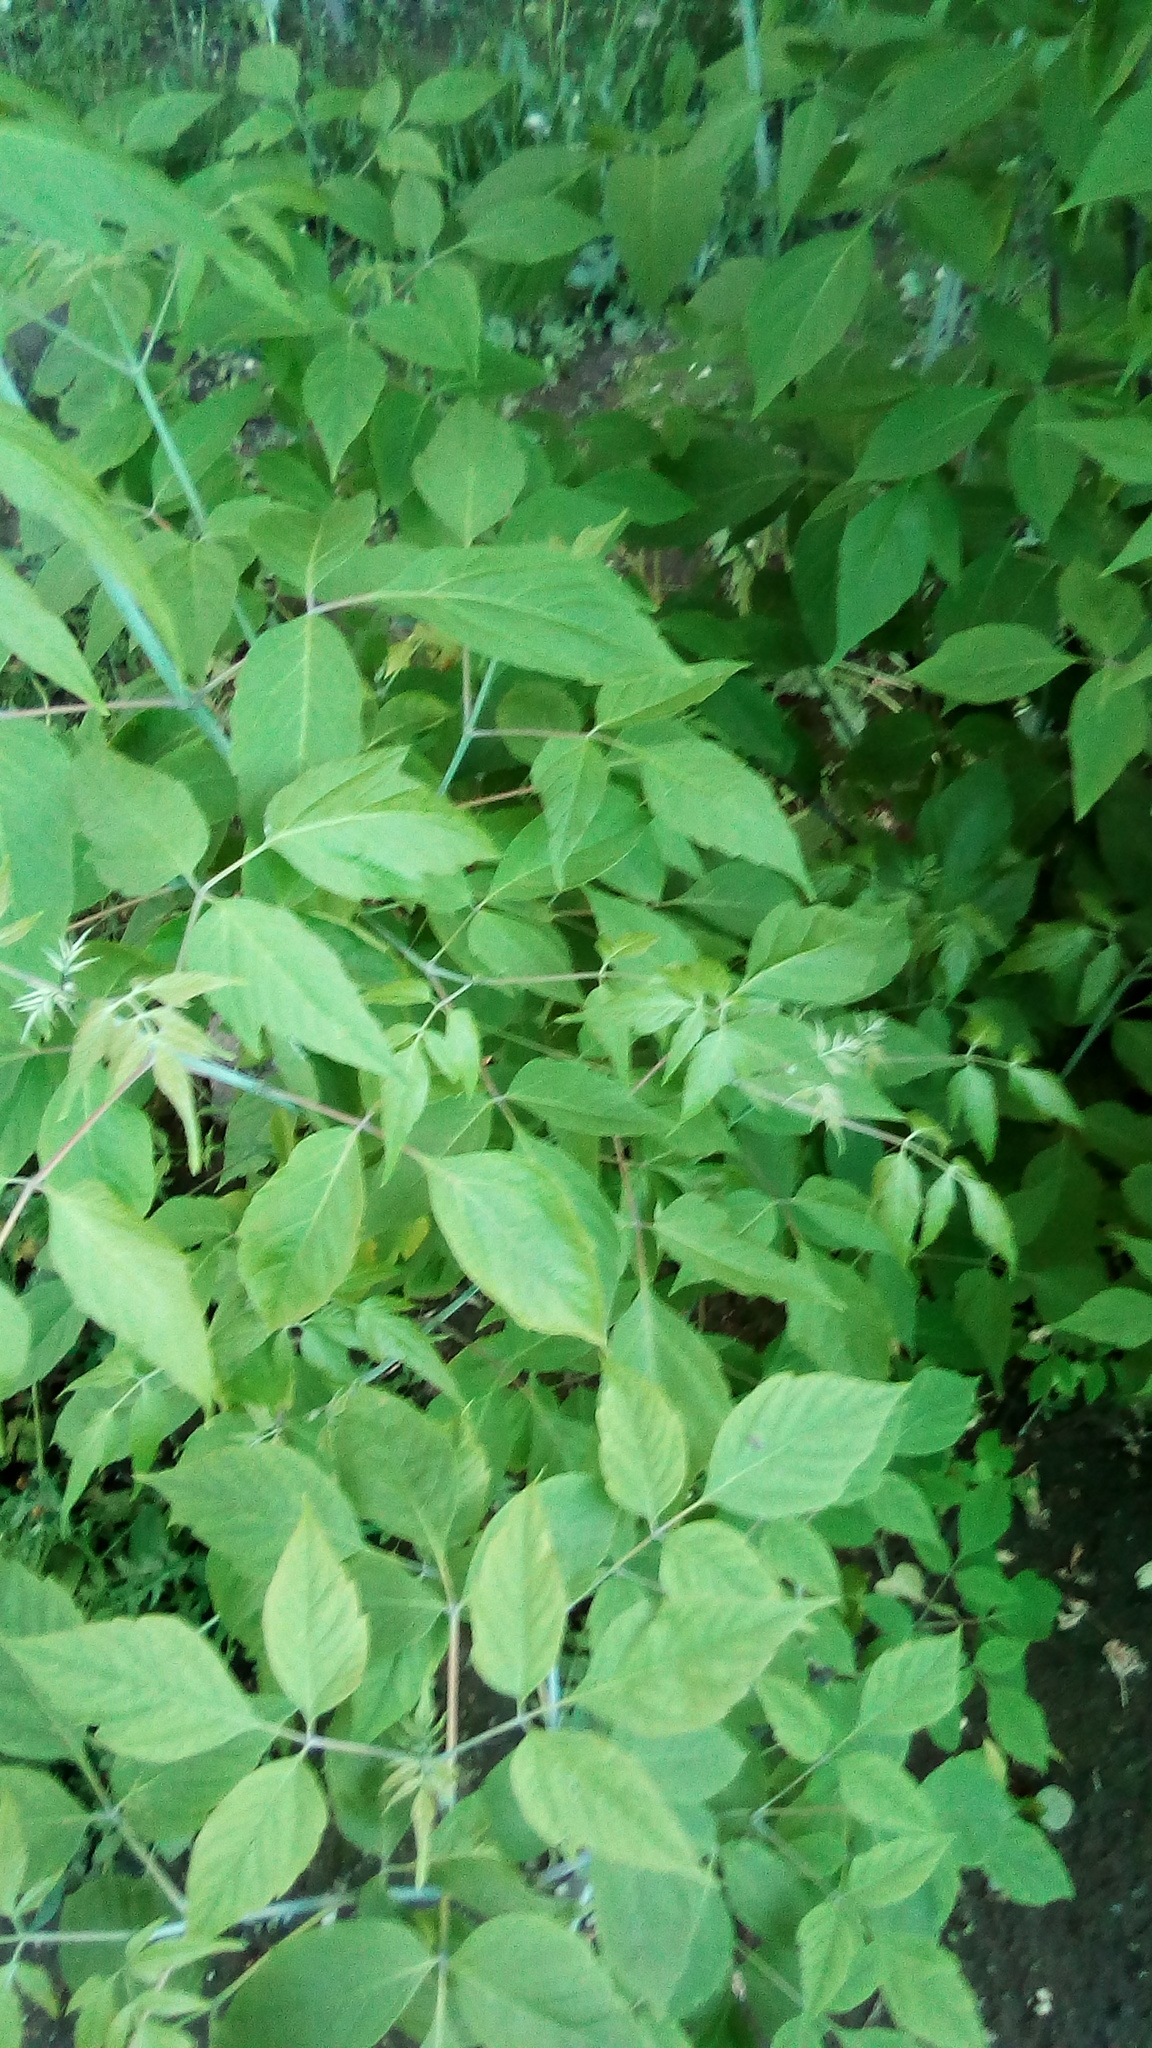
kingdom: Plantae
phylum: Tracheophyta
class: Magnoliopsida
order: Sapindales
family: Sapindaceae
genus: Acer
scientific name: Acer negundo
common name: Ashleaf maple
